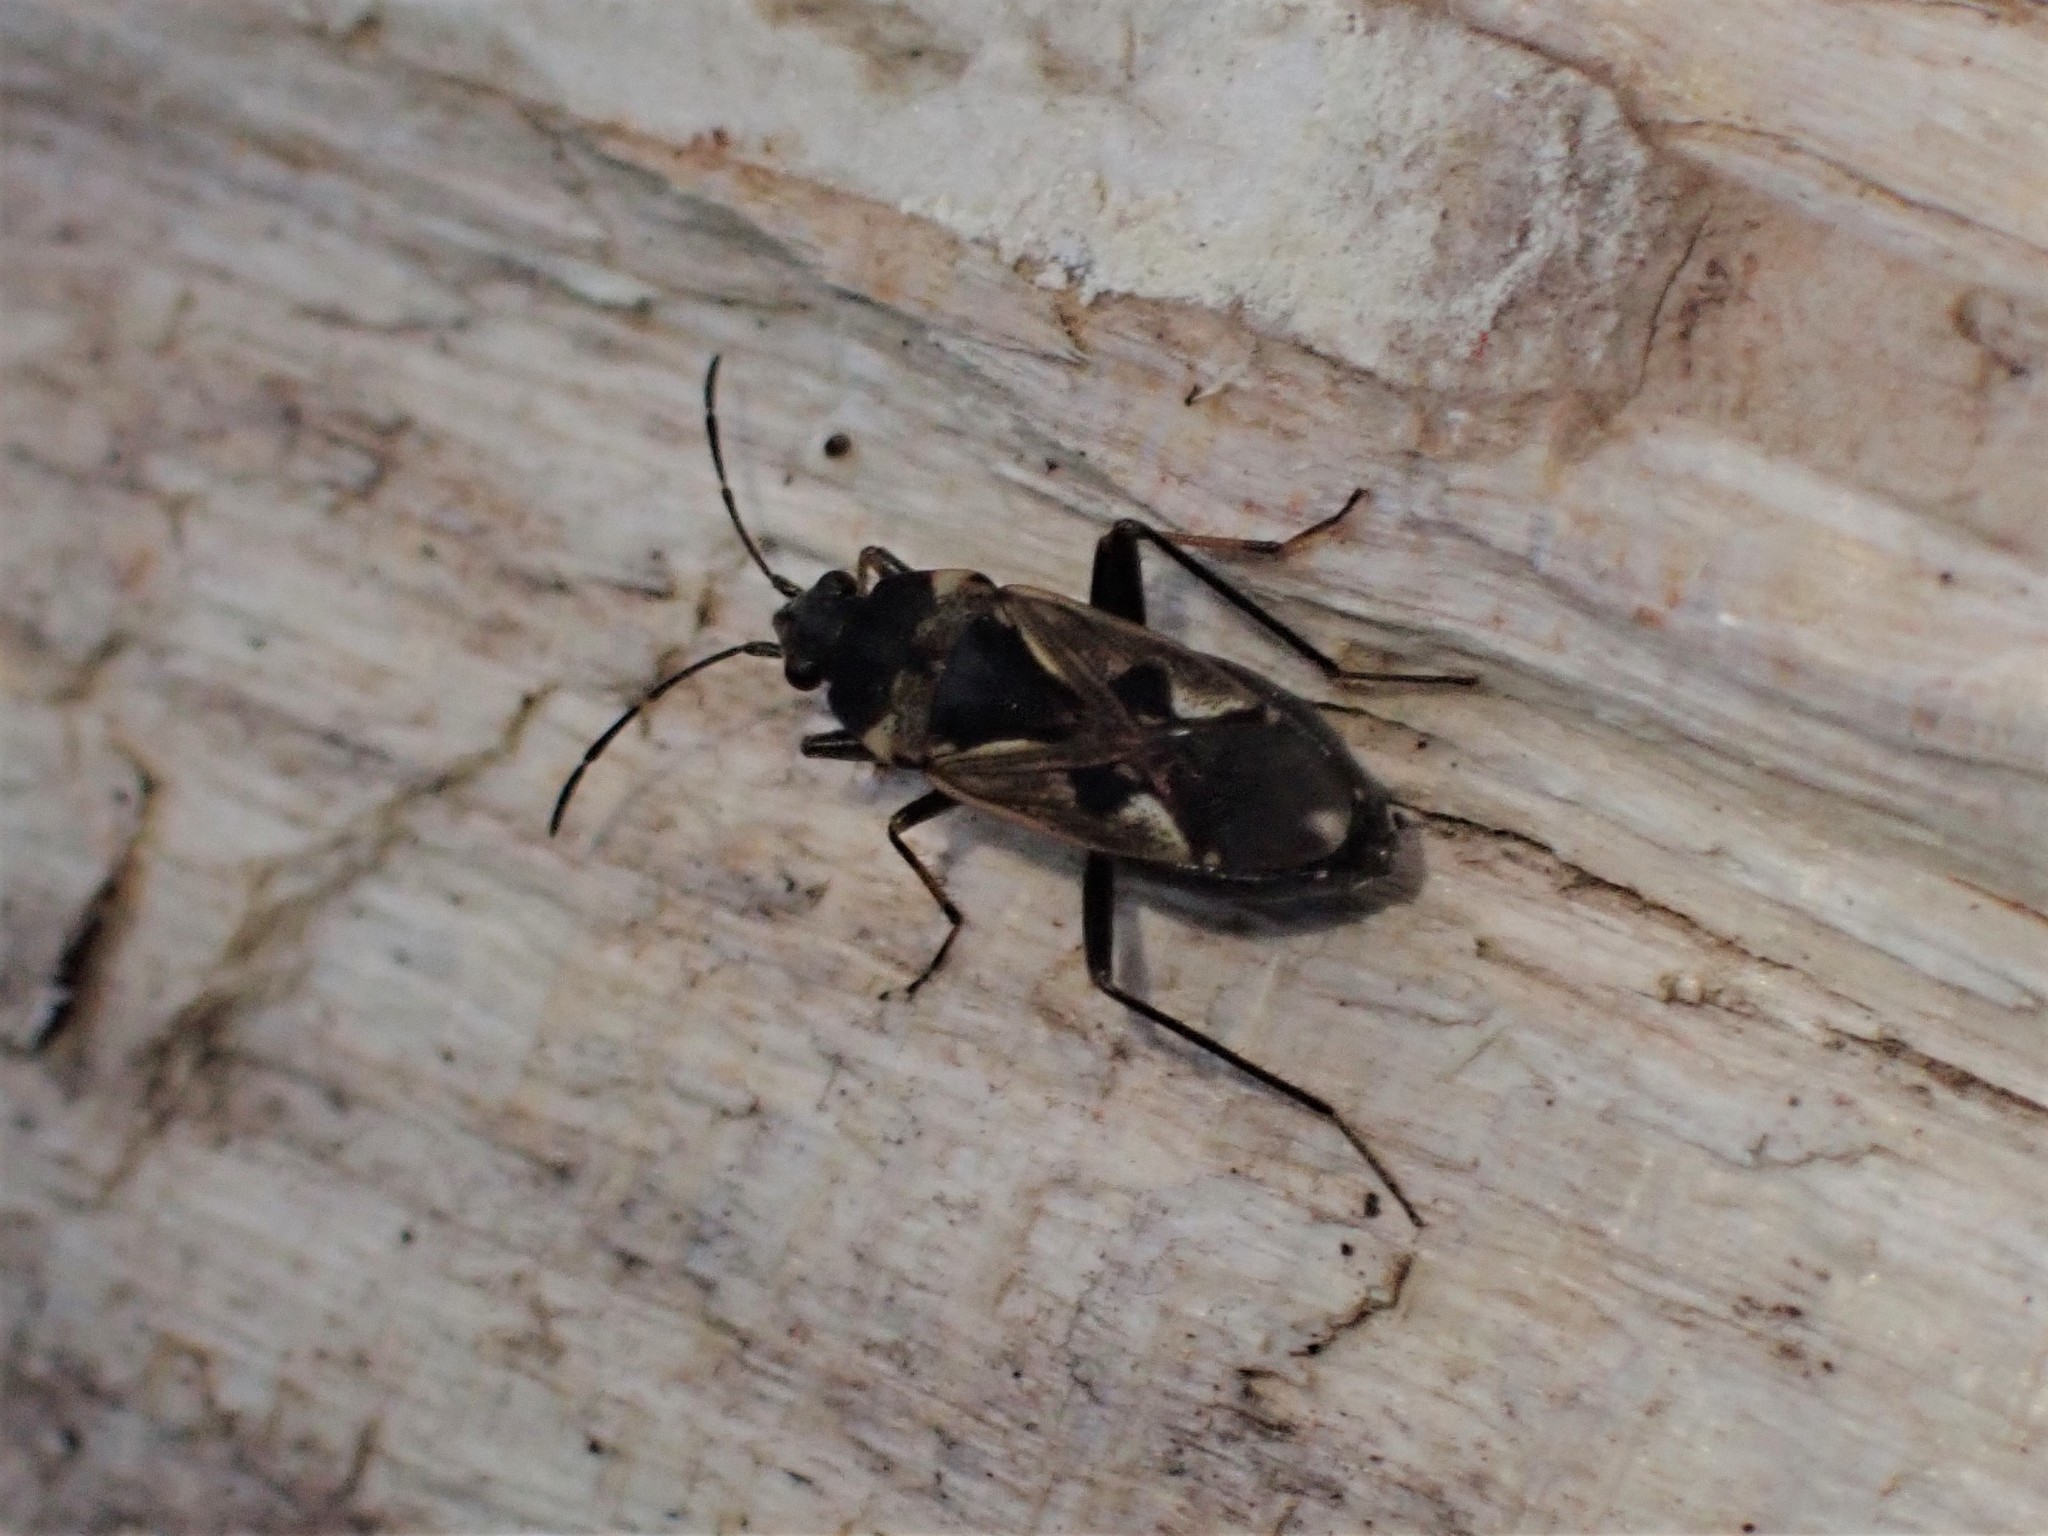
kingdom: Animalia
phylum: Arthropoda
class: Insecta
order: Hemiptera
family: Rhyparochromidae
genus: Rhyparochromus
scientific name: Rhyparochromus vulgaris
